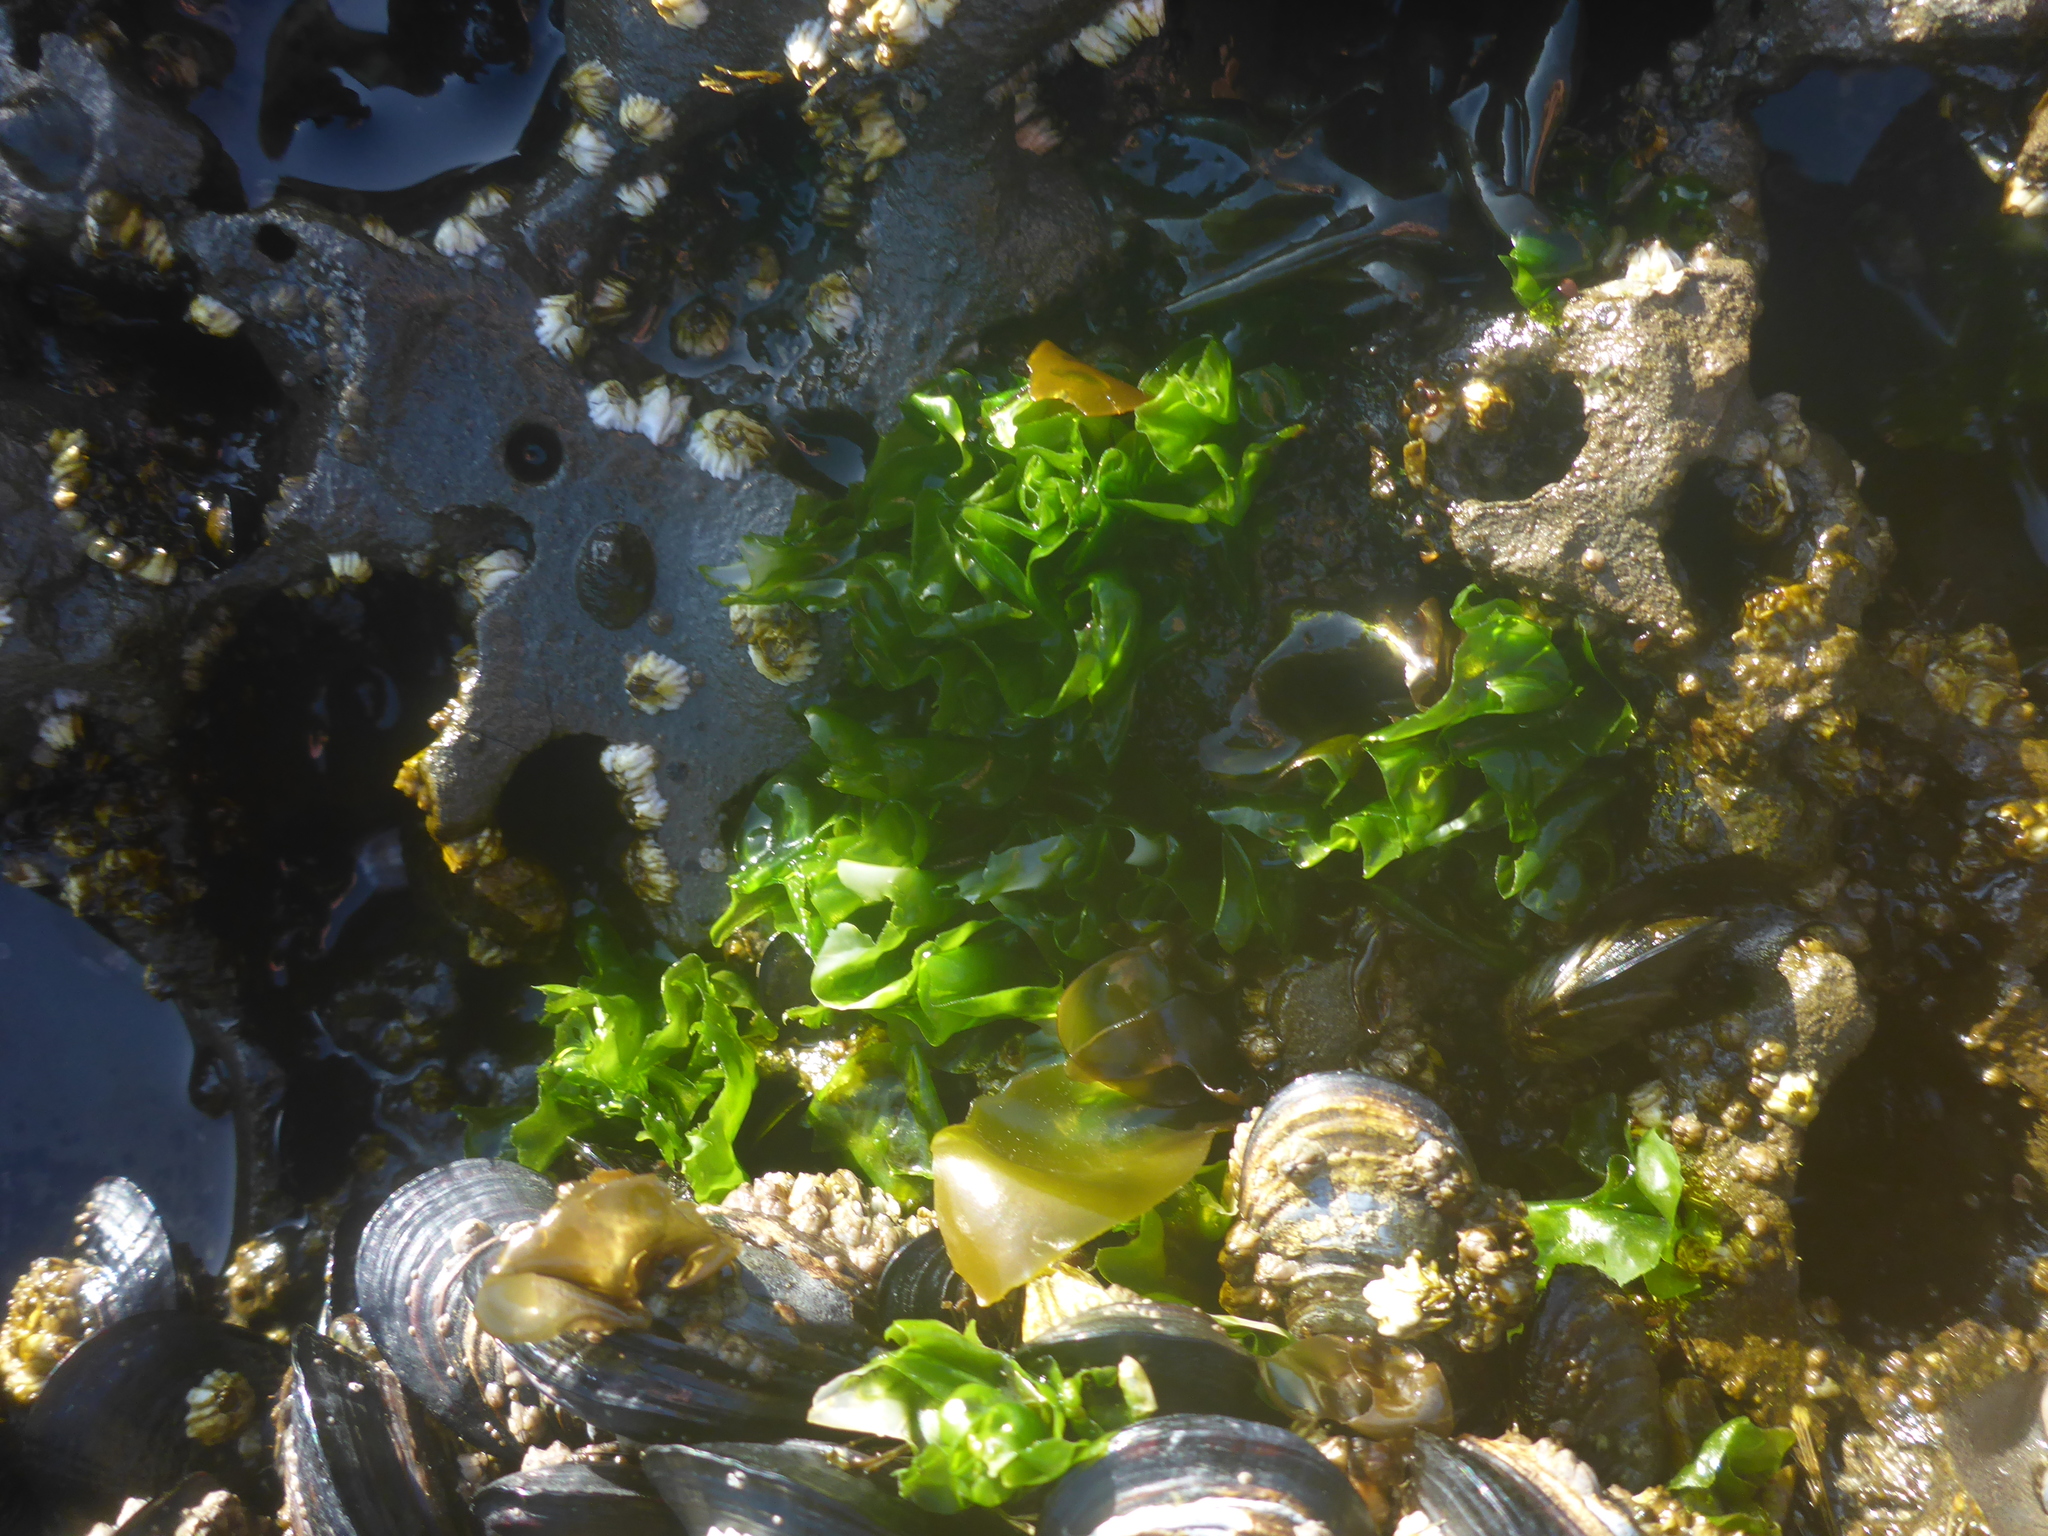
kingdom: Plantae
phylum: Chlorophyta
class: Ulvophyceae
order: Ulvales
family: Ulvaceae
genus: Ulva
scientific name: Ulva lactuca
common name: Sea lettuce
